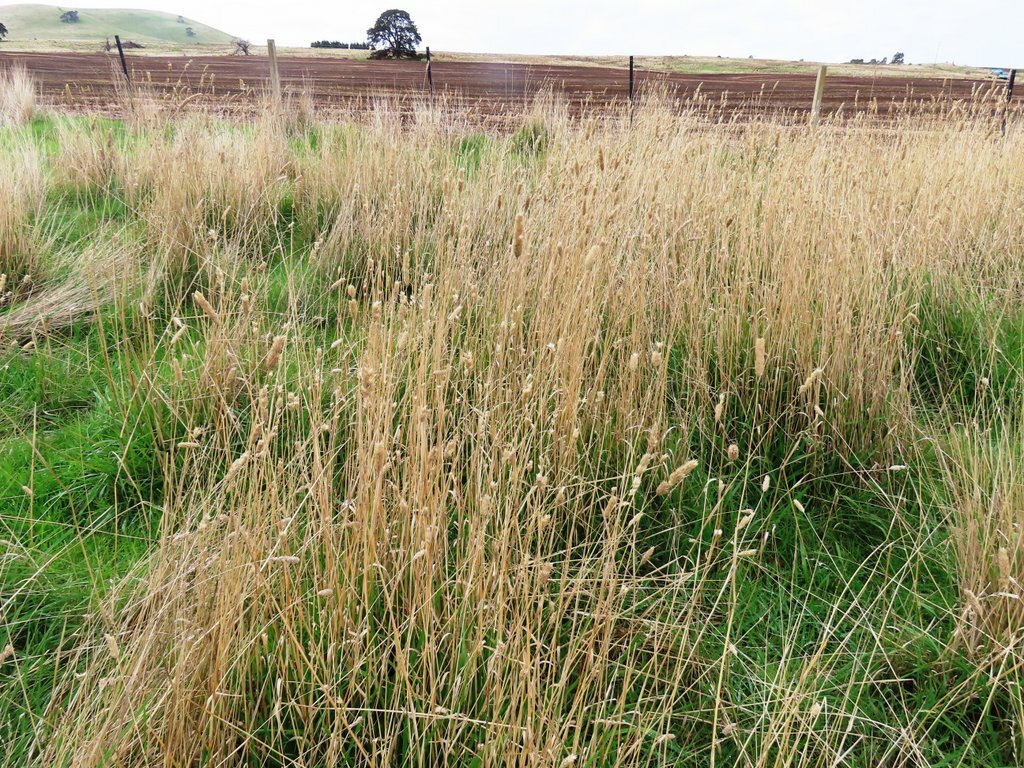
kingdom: Plantae
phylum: Tracheophyta
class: Liliopsida
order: Poales
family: Poaceae
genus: Phalaris
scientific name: Phalaris aquatica
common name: Bulbous canary-grass
